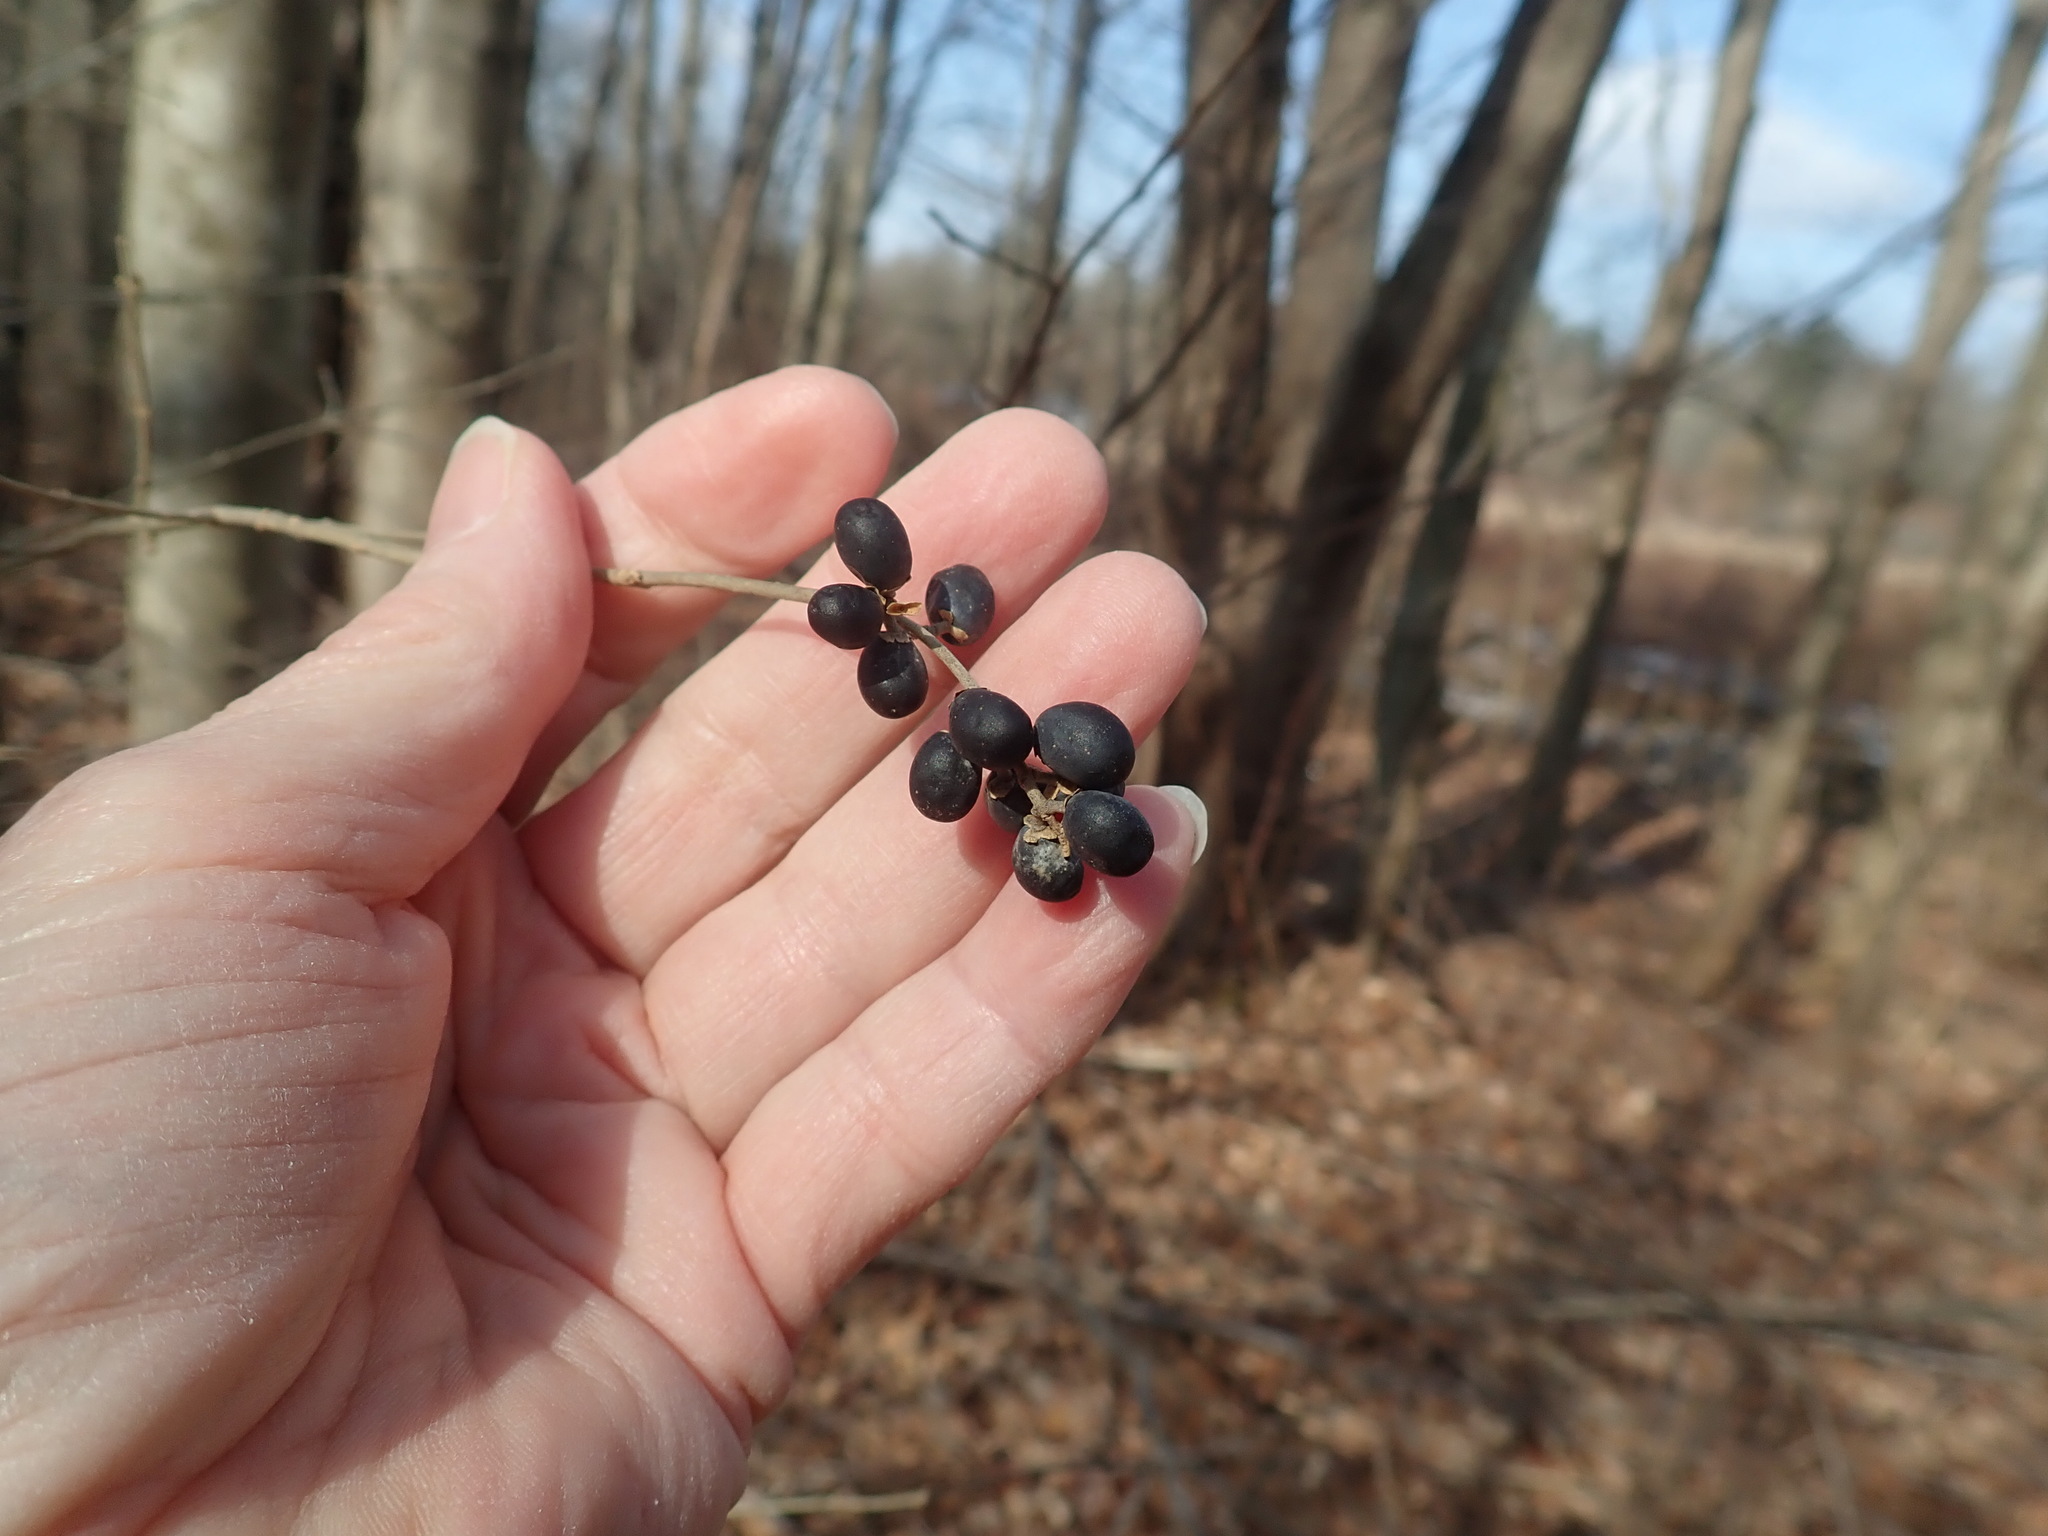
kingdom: Plantae
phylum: Tracheophyta
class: Magnoliopsida
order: Lamiales
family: Oleaceae
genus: Ligustrum
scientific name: Ligustrum obtusifolium
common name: Border privet
